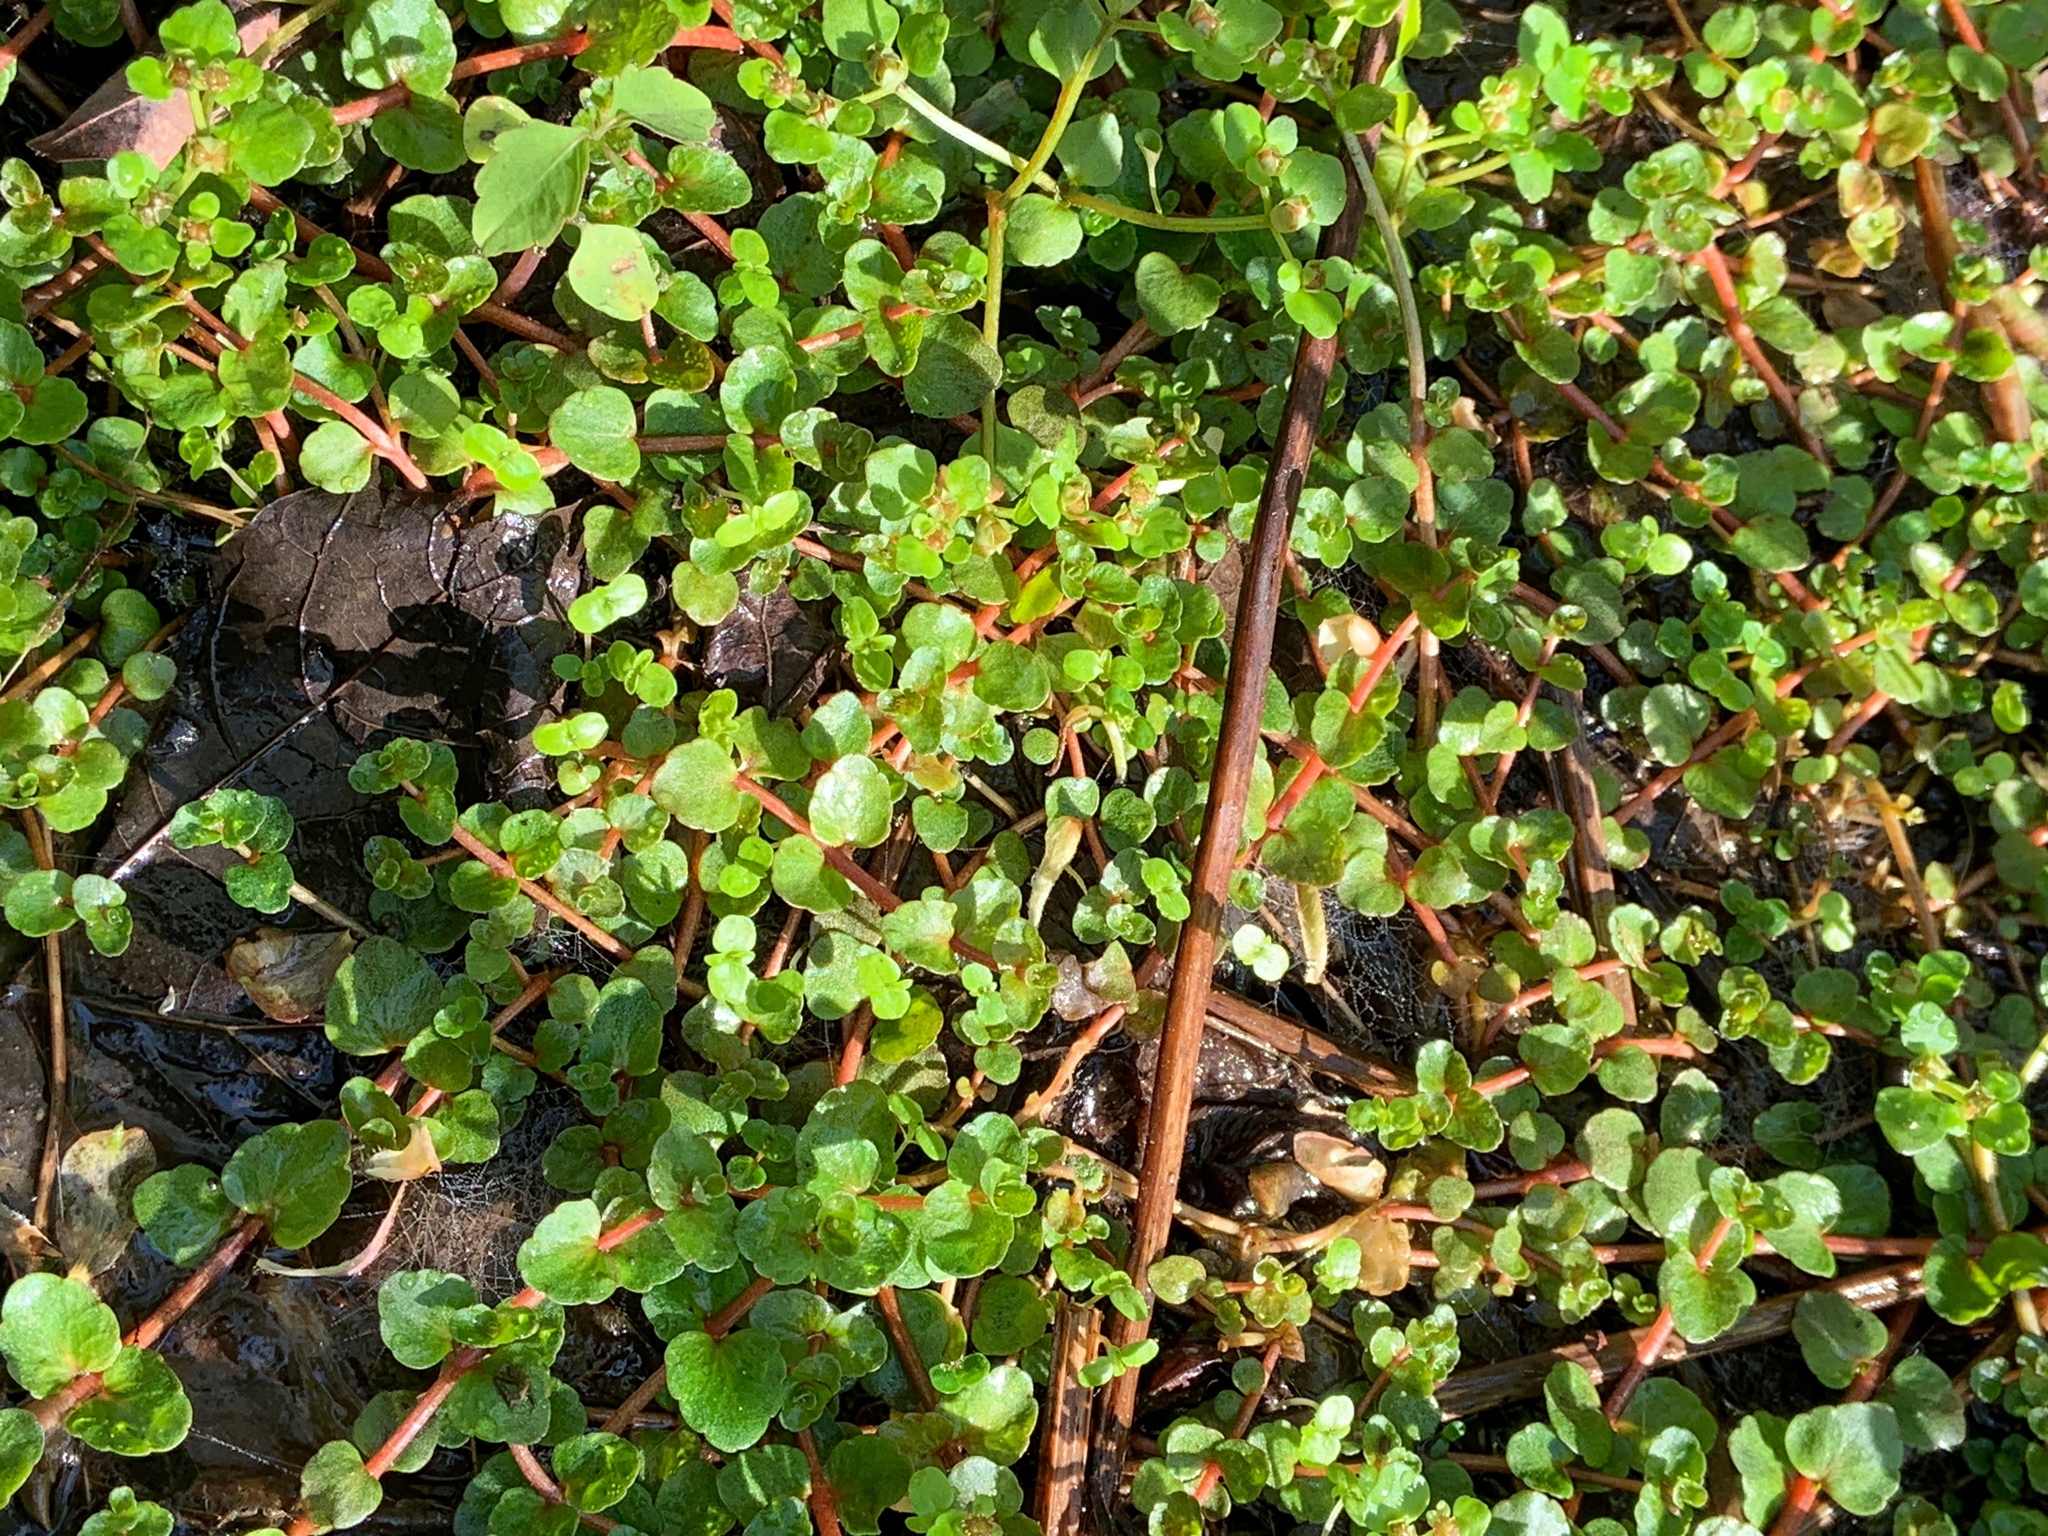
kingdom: Plantae
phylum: Tracheophyta
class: Magnoliopsida
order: Saxifragales
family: Saxifragaceae
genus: Chrysosplenium
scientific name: Chrysosplenium americanum
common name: American golden-saxifrage
